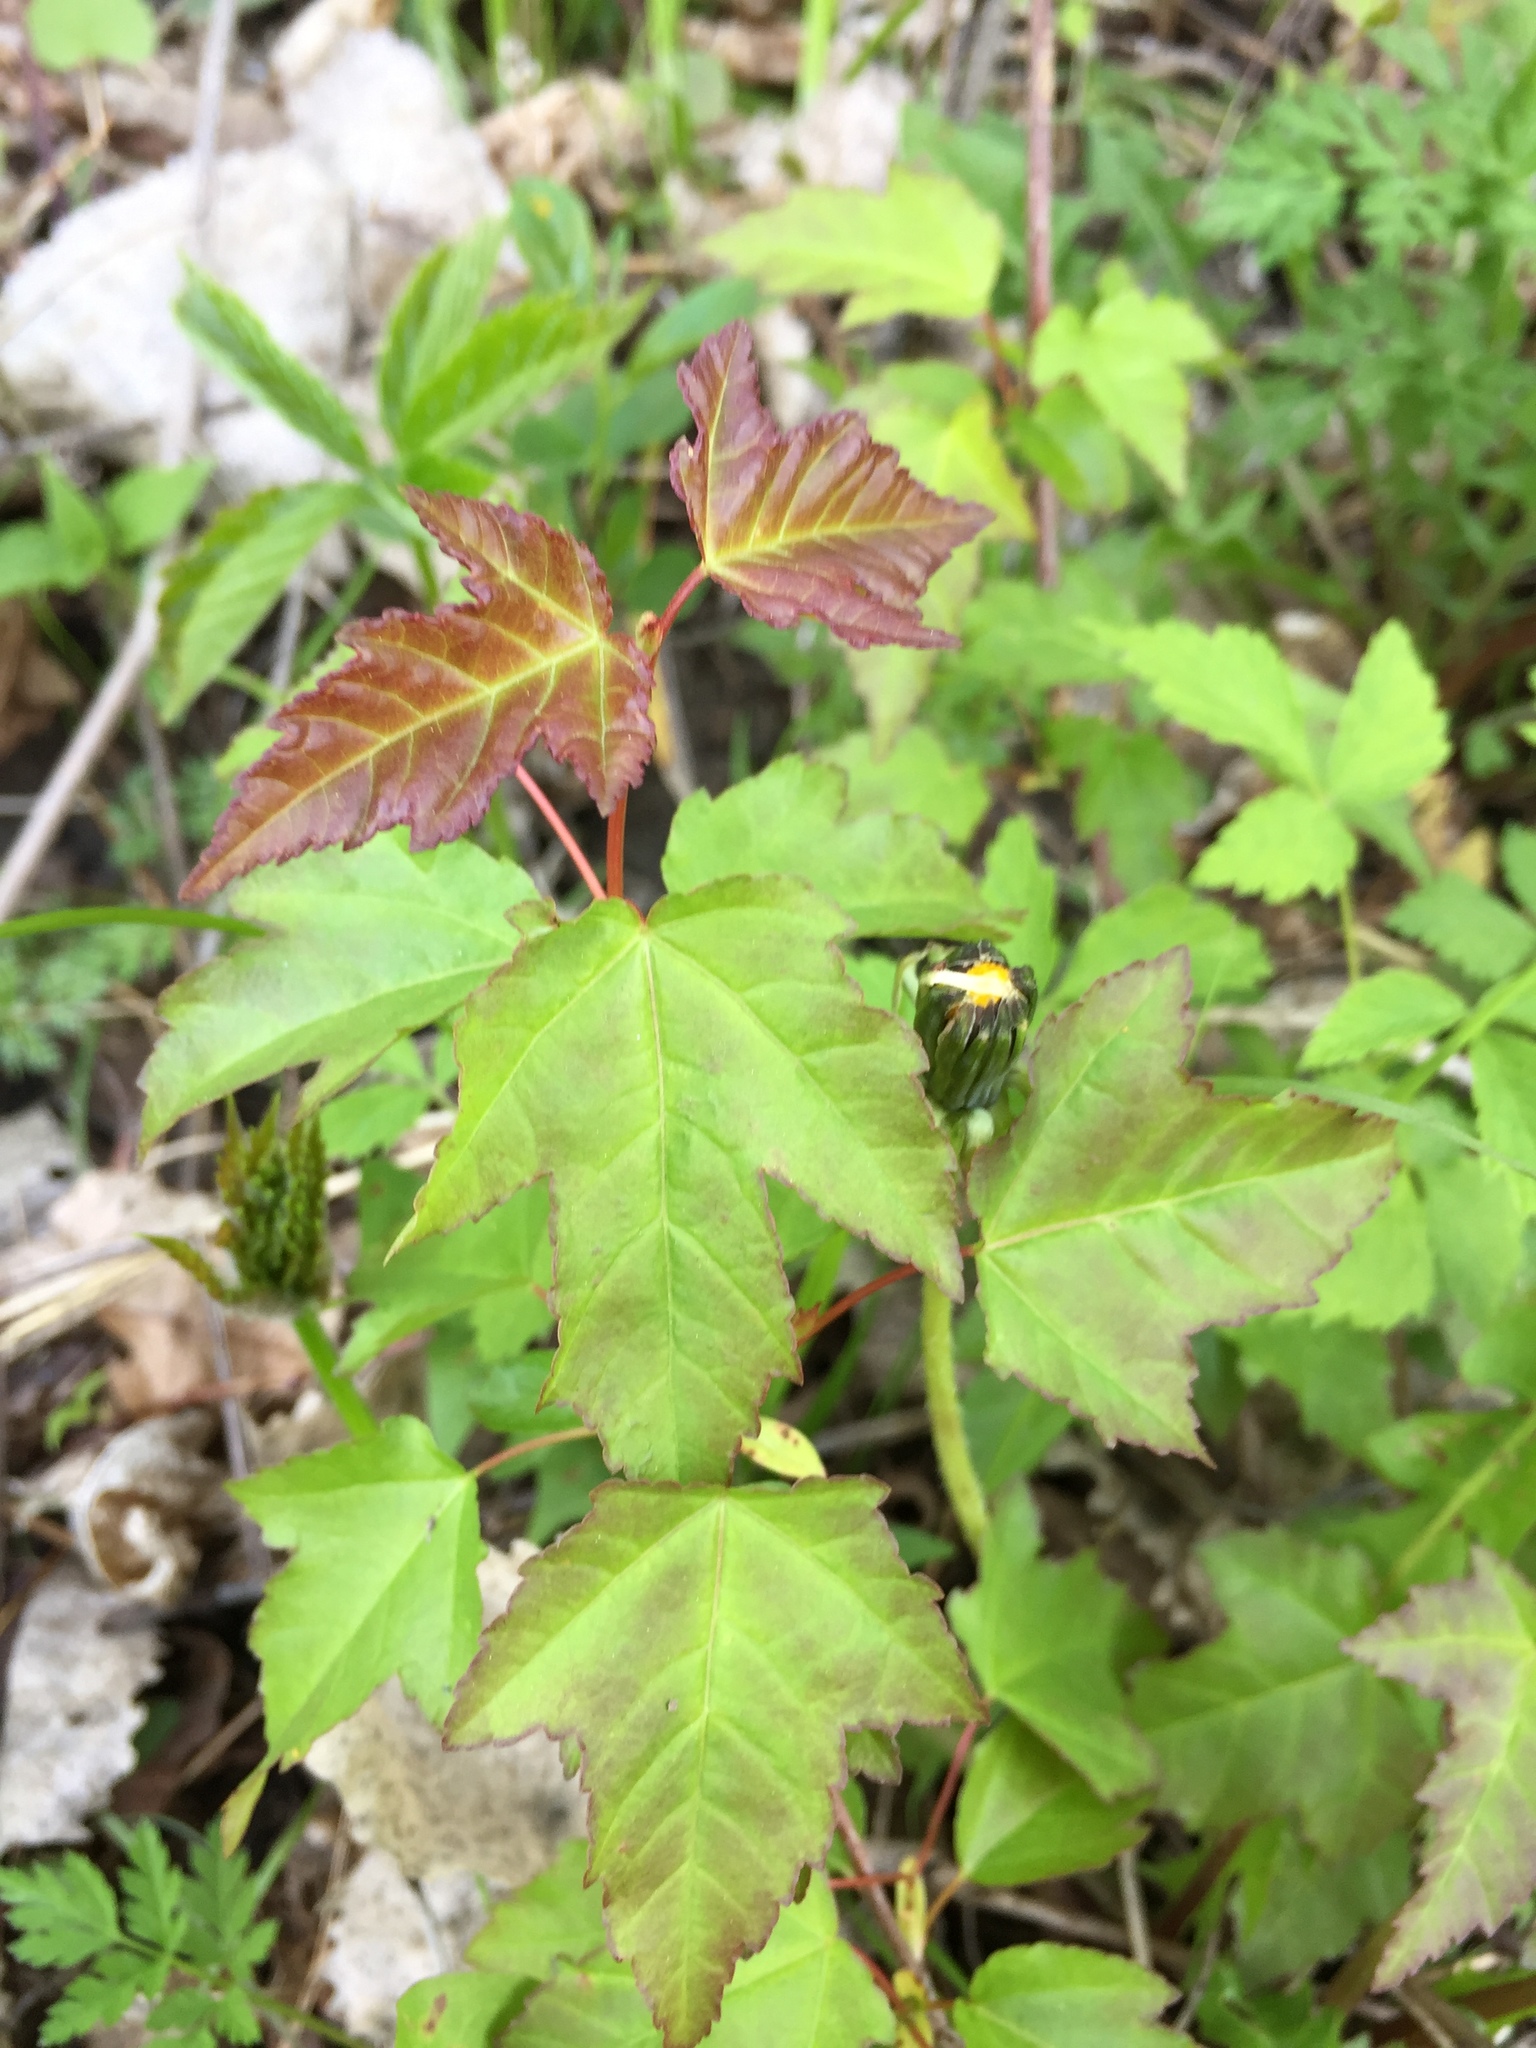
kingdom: Plantae
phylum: Tracheophyta
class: Magnoliopsida
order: Sapindales
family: Sapindaceae
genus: Acer
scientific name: Acer tataricum
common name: Tartar maple
